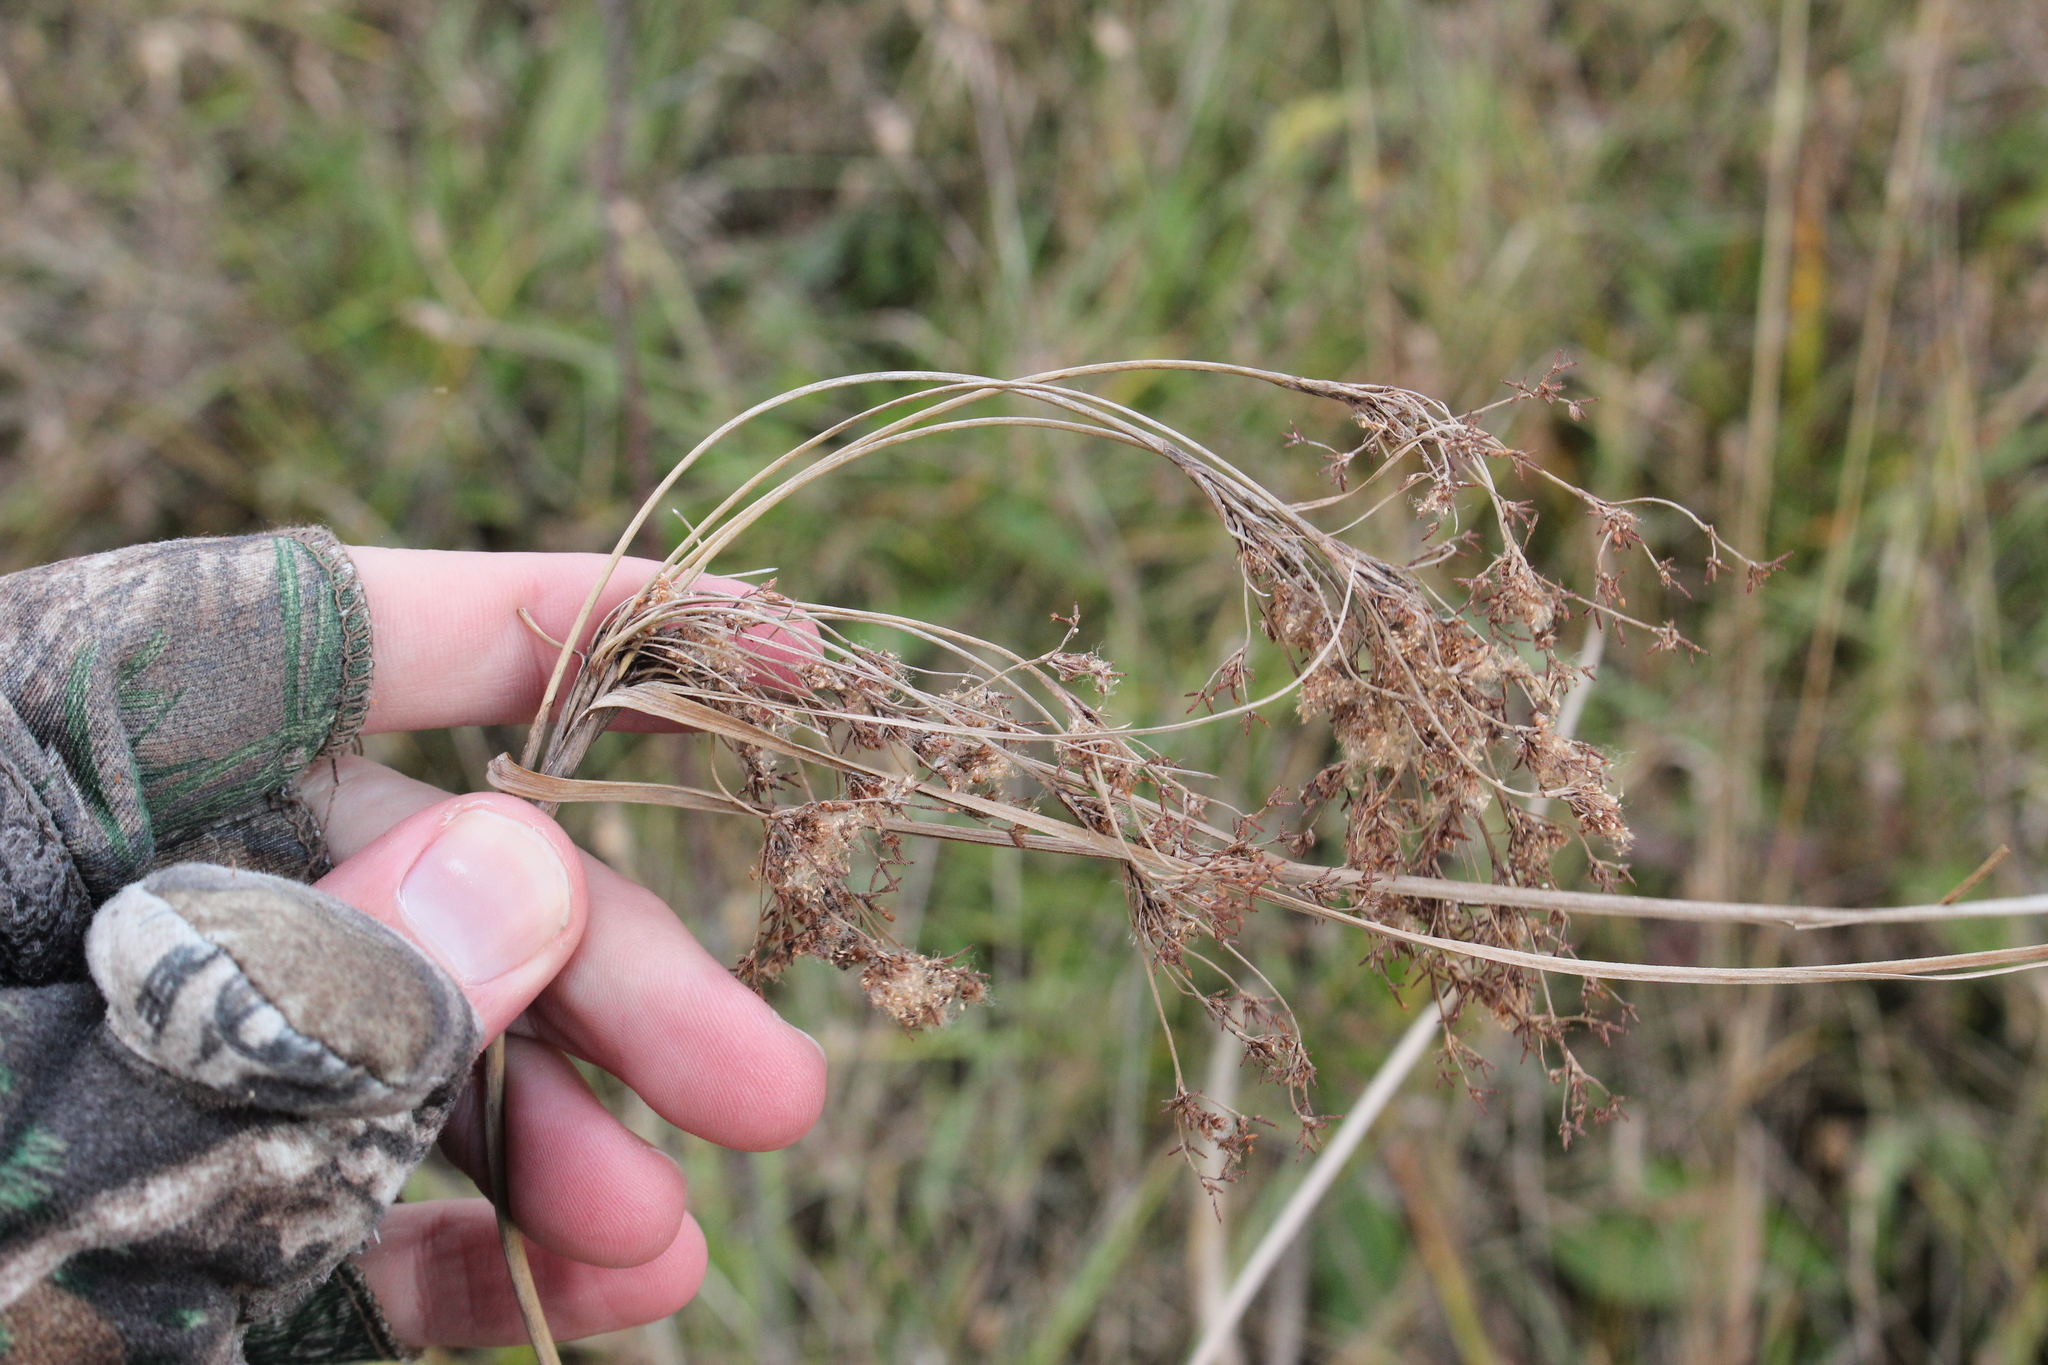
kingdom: Plantae
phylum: Tracheophyta
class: Liliopsida
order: Poales
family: Cyperaceae
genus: Scirpus
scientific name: Scirpus cyperinus
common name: Black-sheathed bulrush
